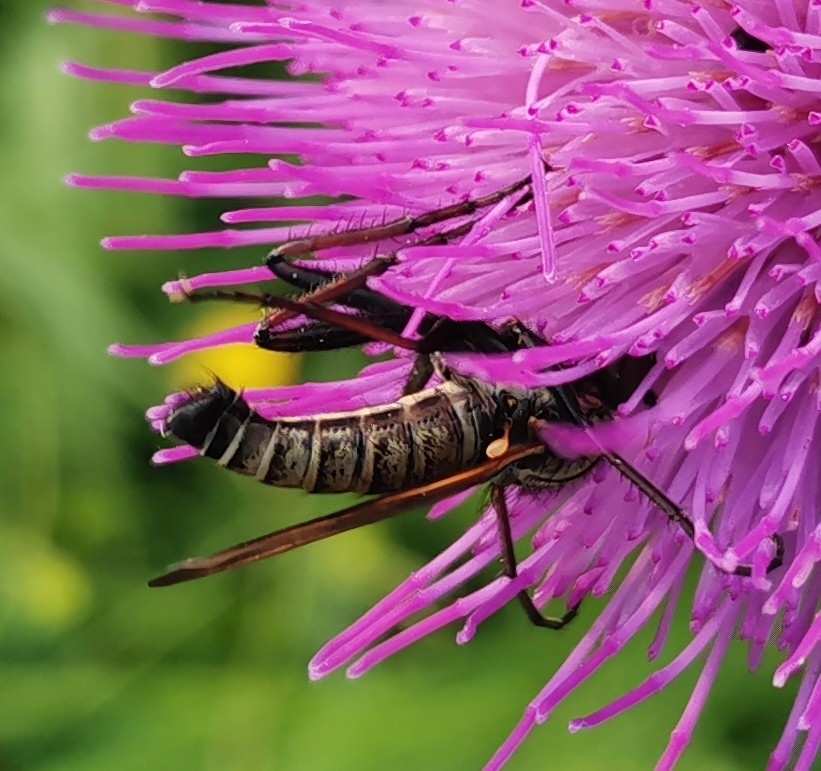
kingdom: Animalia
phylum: Arthropoda
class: Insecta
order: Diptera
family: Empididae
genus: Empis
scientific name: Empis tessellata
